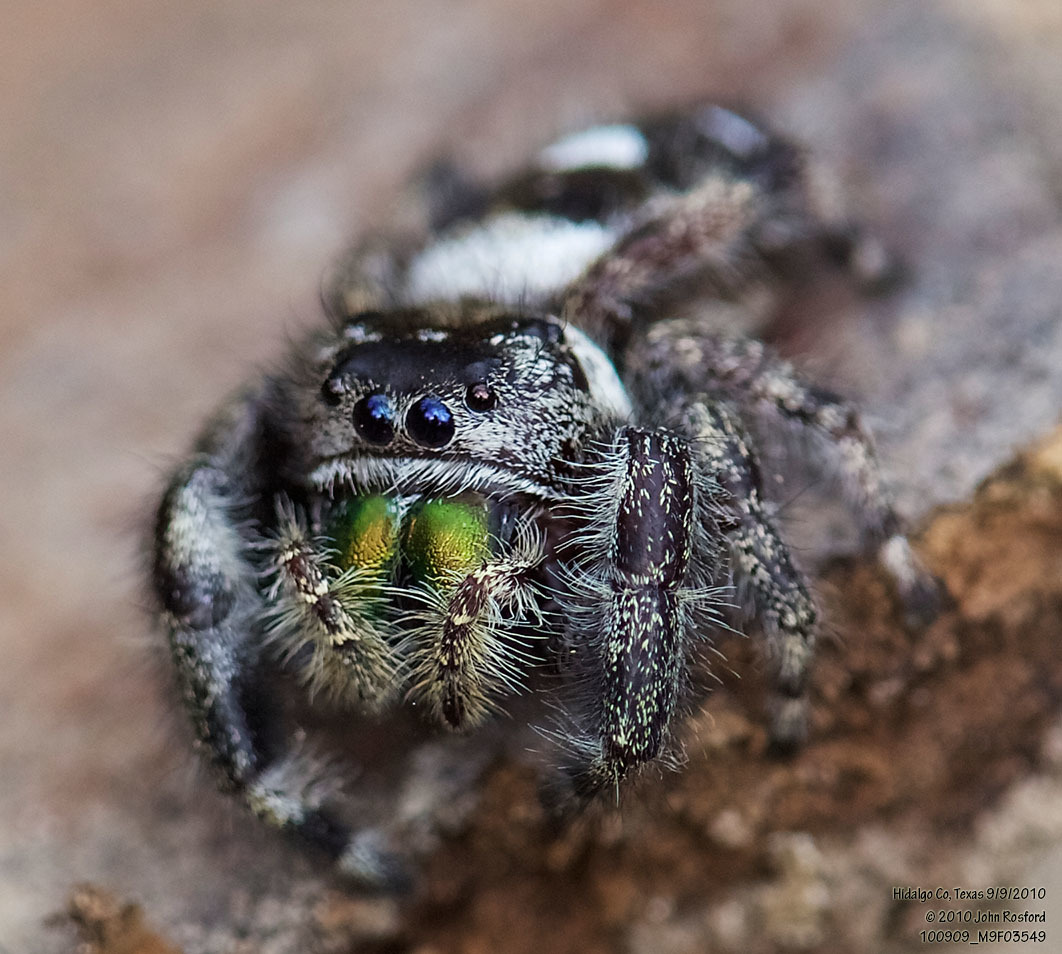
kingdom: Animalia
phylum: Arthropoda
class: Arachnida
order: Araneae
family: Salticidae
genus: Phidippus
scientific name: Phidippus audax
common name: Bold jumper
